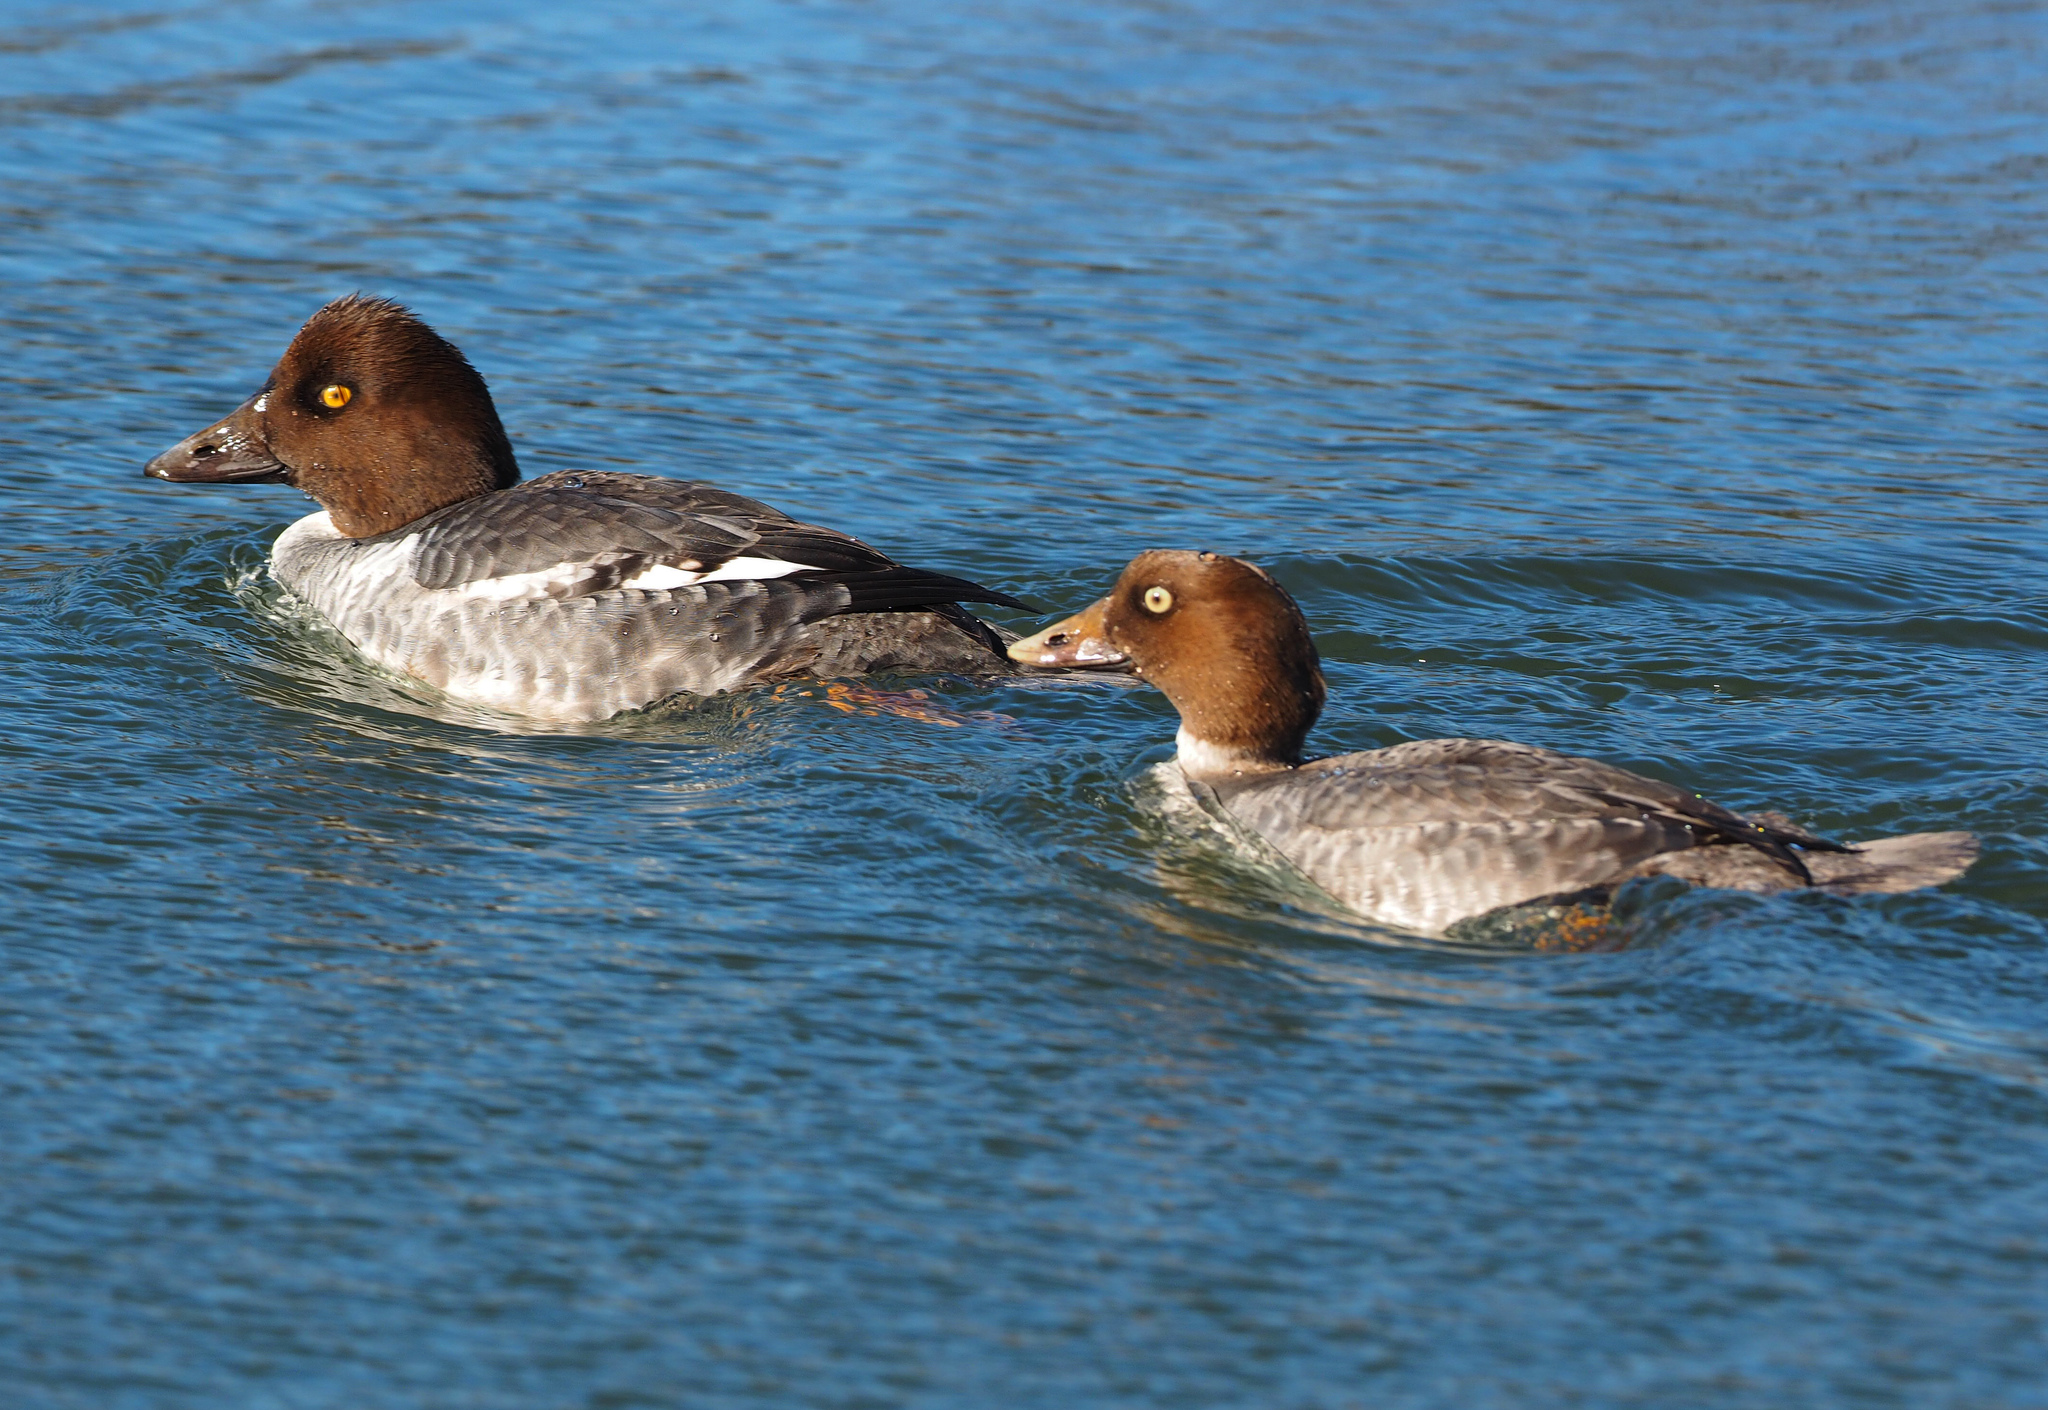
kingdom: Animalia
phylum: Chordata
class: Aves
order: Anseriformes
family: Anatidae
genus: Bucephala
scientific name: Bucephala clangula
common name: Common goldeneye
